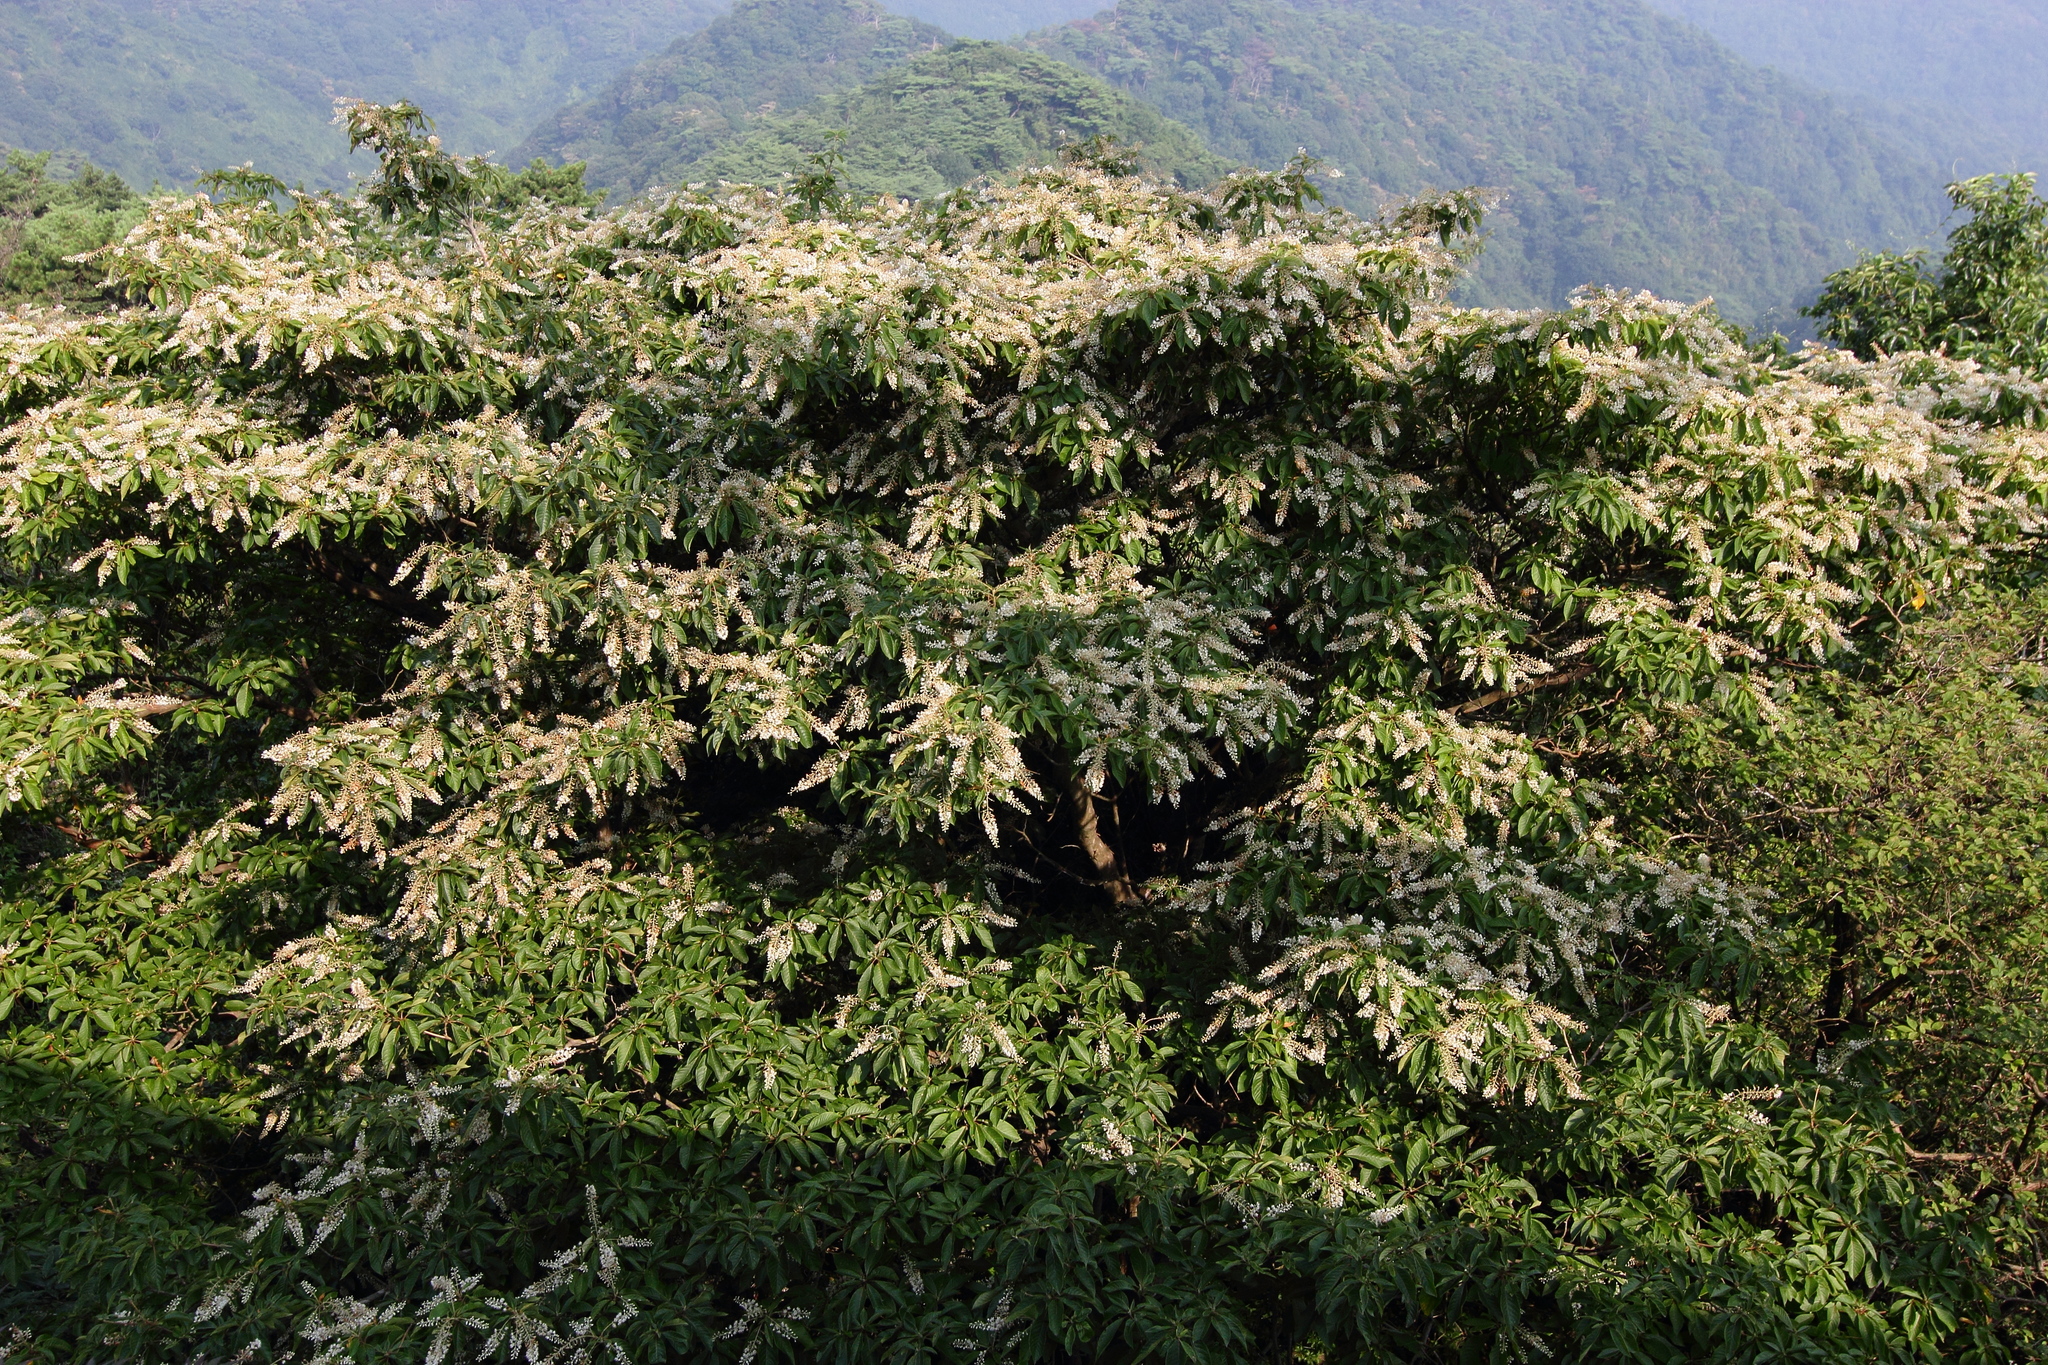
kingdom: Plantae
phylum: Tracheophyta
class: Magnoliopsida
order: Ericales
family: Clethraceae
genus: Clethra
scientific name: Clethra barbinervis
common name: Japanese clethra
